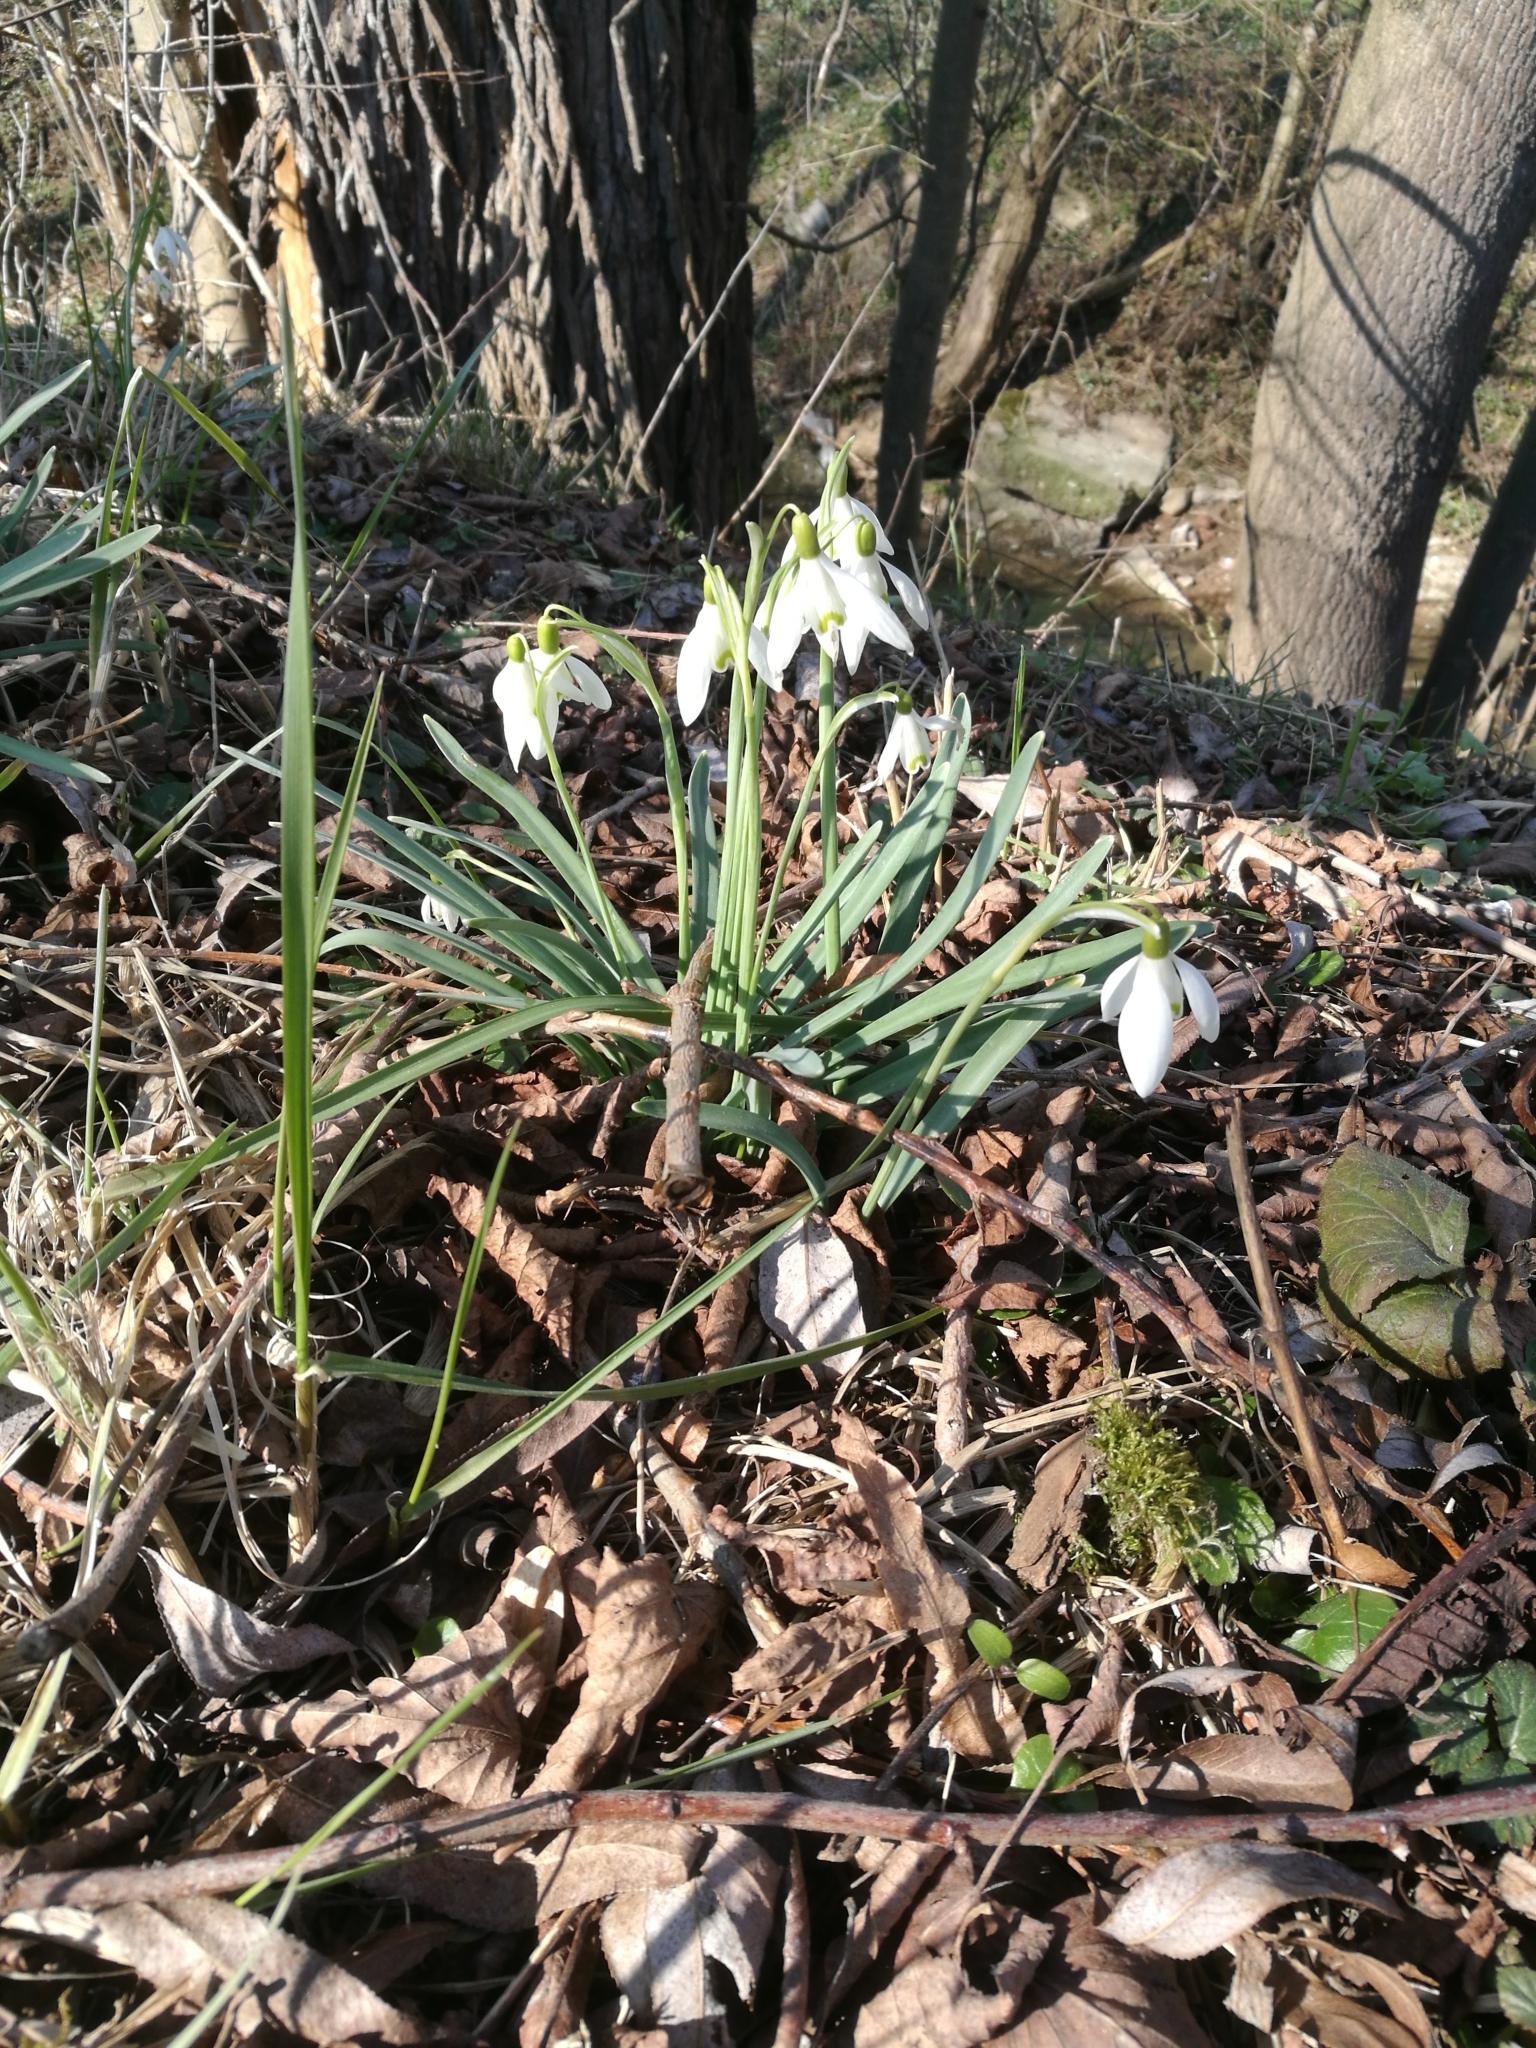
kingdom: Plantae
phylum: Tracheophyta
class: Liliopsida
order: Asparagales
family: Amaryllidaceae
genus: Galanthus
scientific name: Galanthus nivalis
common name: Snowdrop
